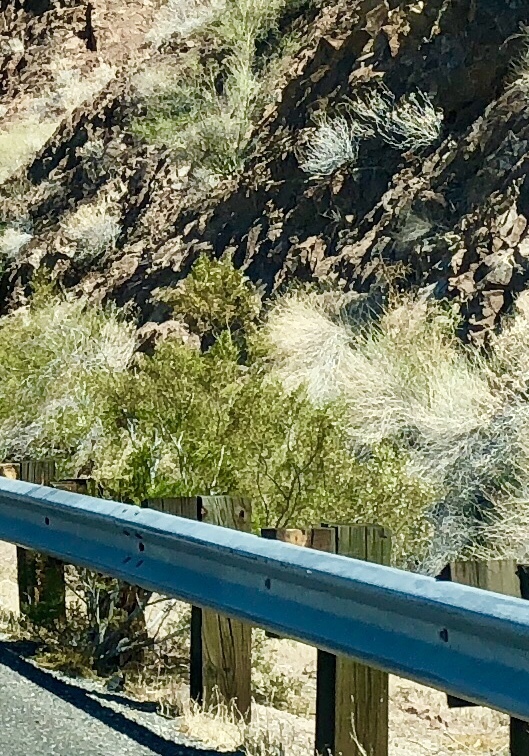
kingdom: Plantae
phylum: Tracheophyta
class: Magnoliopsida
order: Zygophyllales
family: Zygophyllaceae
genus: Larrea
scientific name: Larrea tridentata
